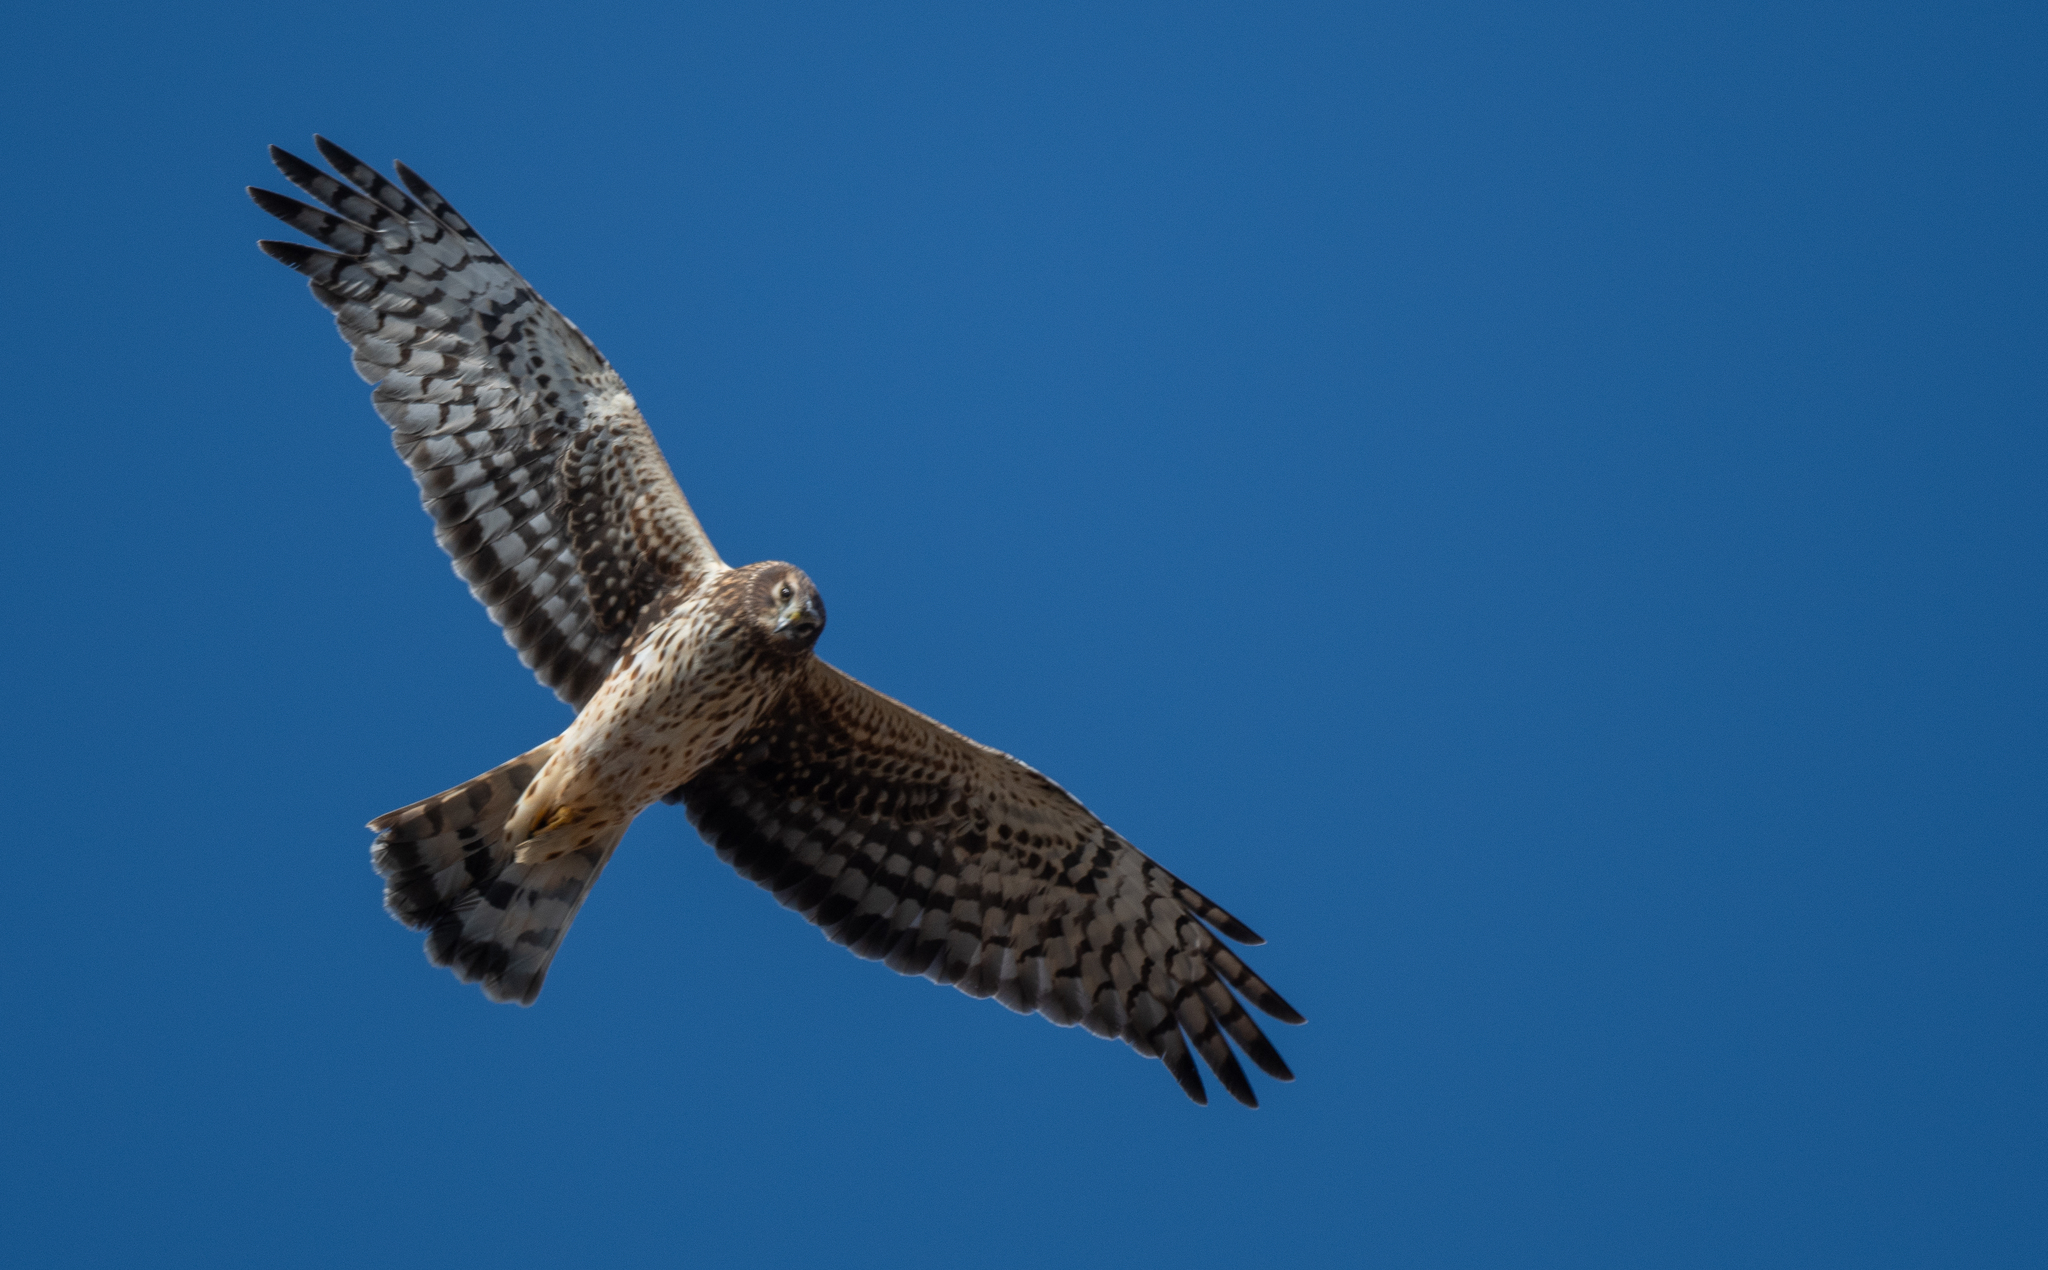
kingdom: Animalia
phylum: Chordata
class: Aves
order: Accipitriformes
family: Accipitridae
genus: Circus
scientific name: Circus cyaneus
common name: Hen harrier
